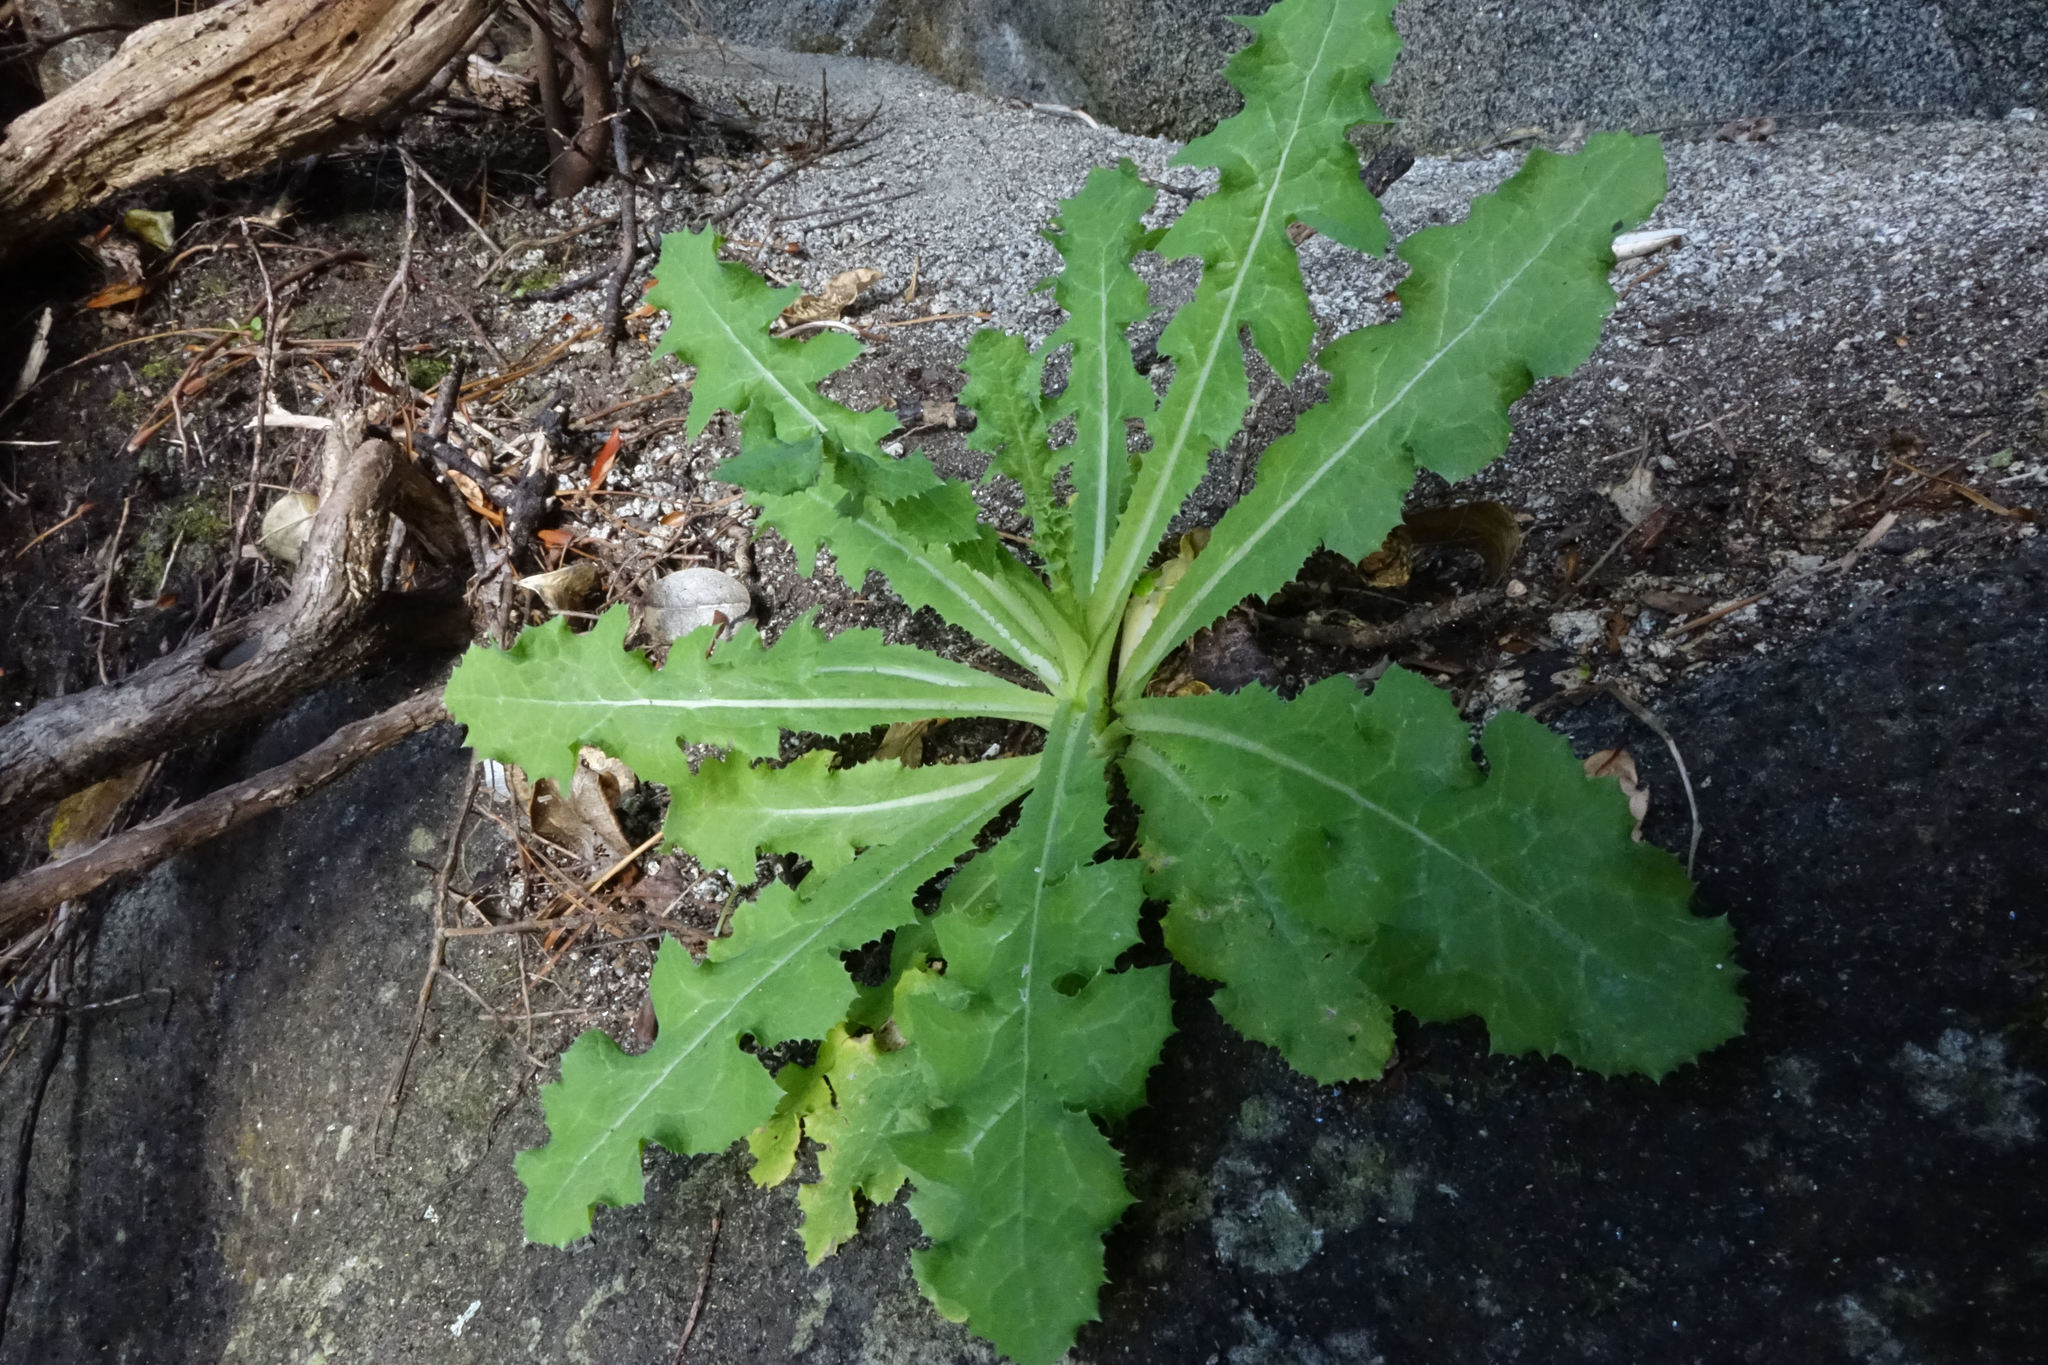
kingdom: Plantae
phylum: Tracheophyta
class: Magnoliopsida
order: Asterales
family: Asteraceae
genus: Sonchus
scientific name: Sonchus kirkii
